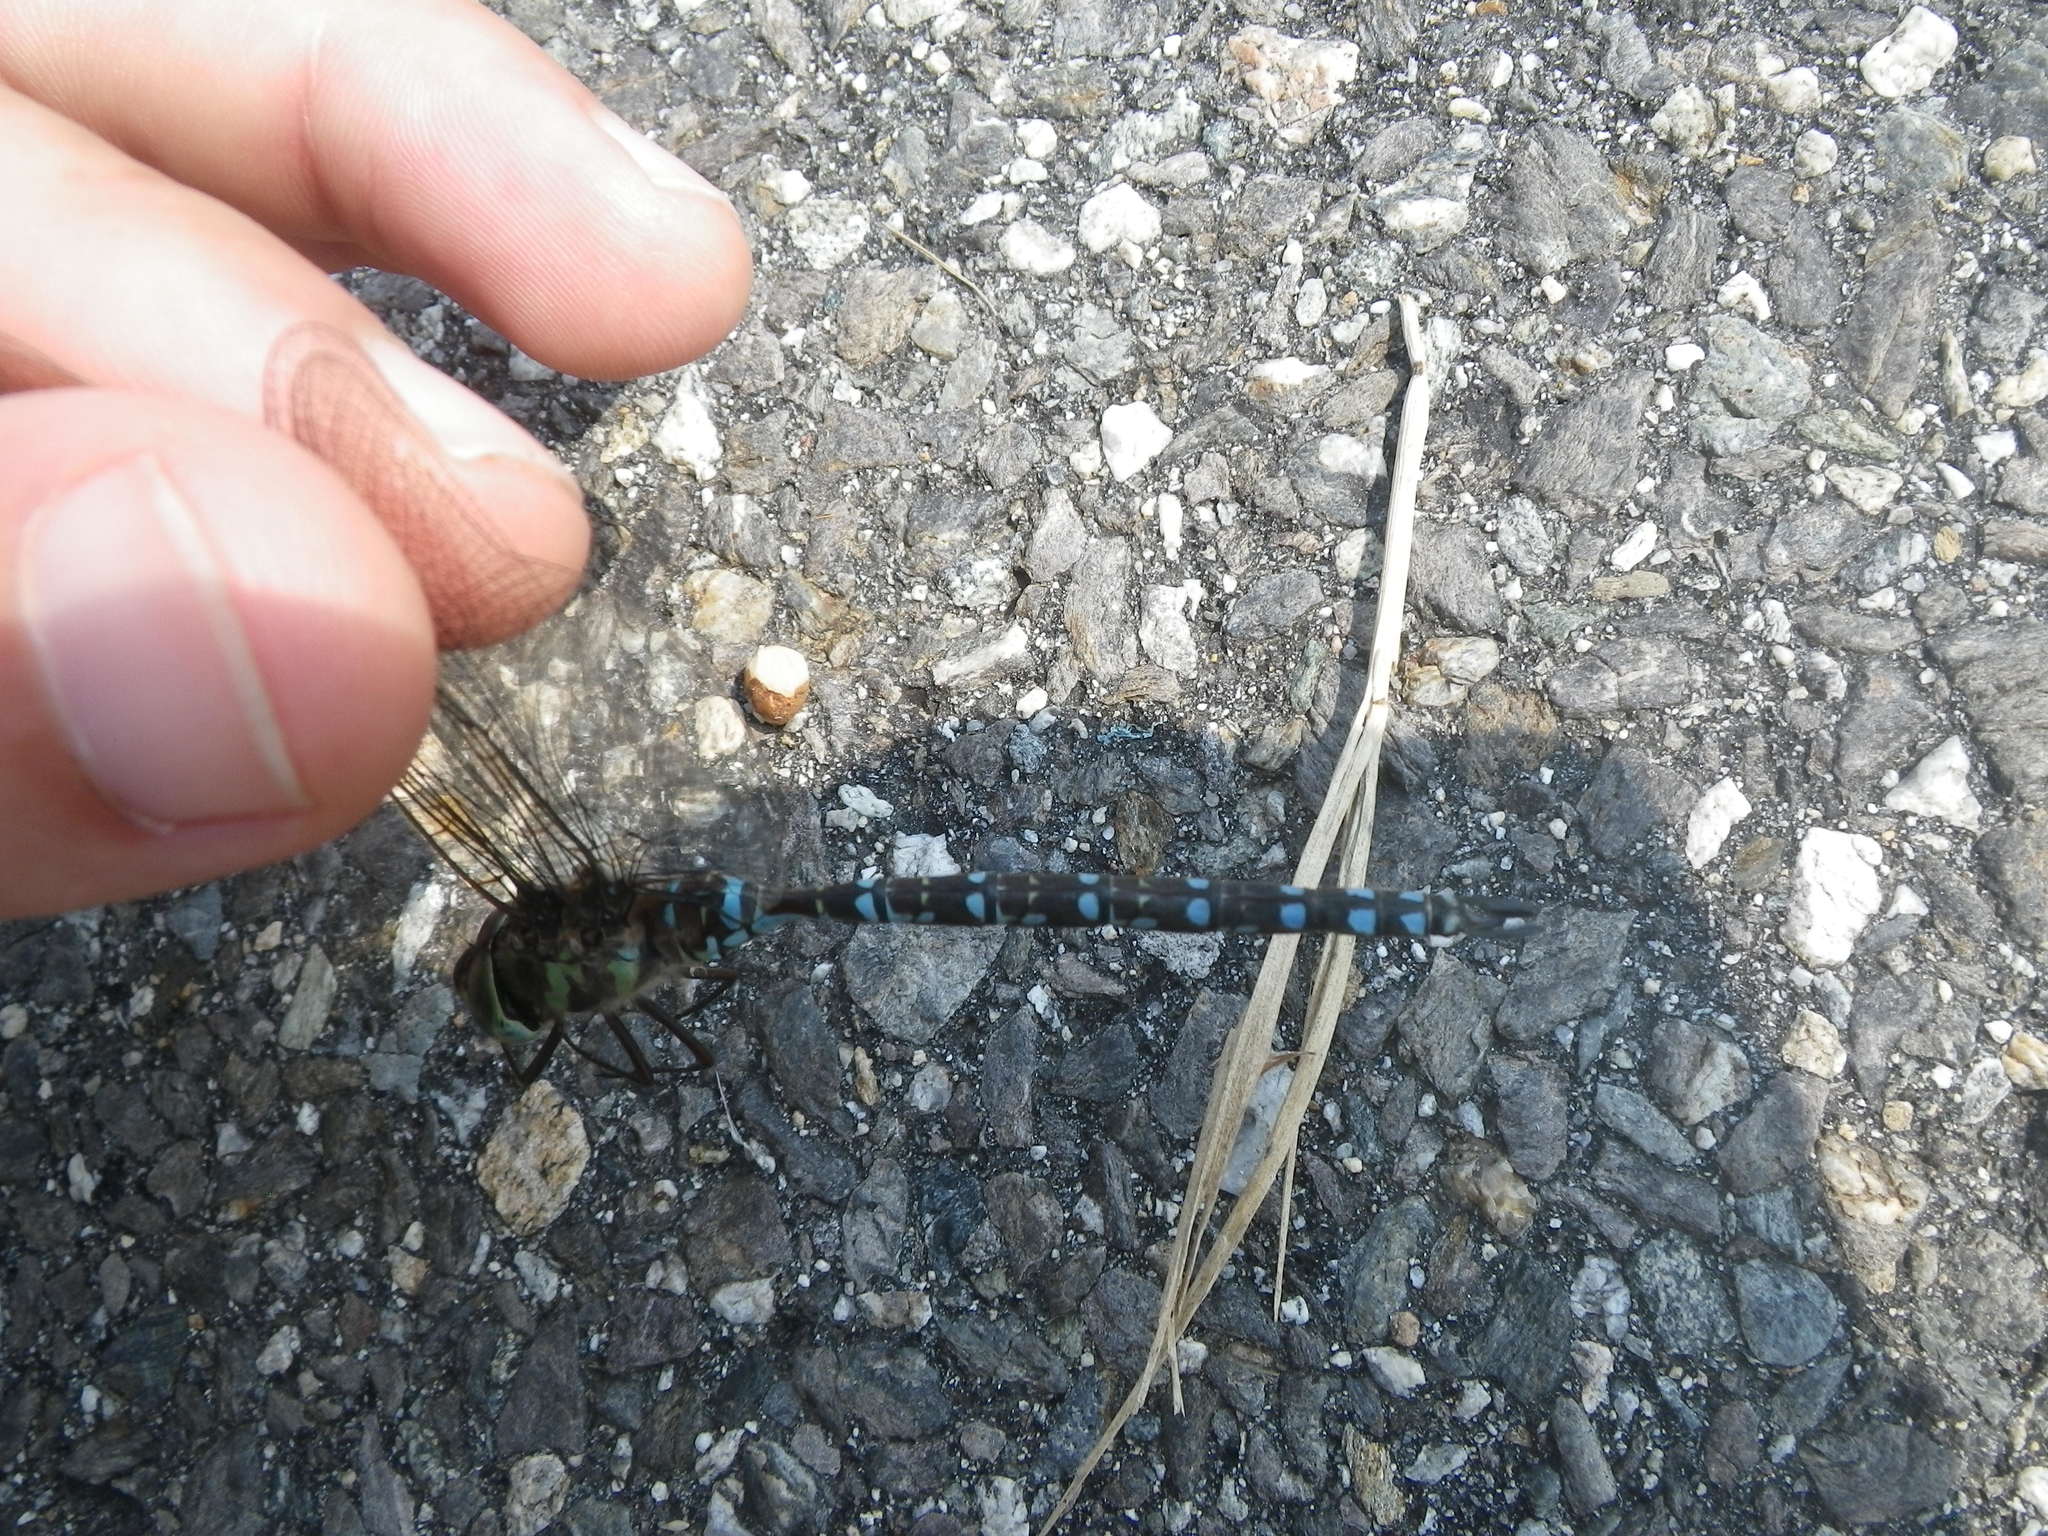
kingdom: Animalia
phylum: Arthropoda
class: Insecta
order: Odonata
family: Aeshnidae
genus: Aeshna
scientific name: Aeshna verticalis
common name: Green-striped darner
